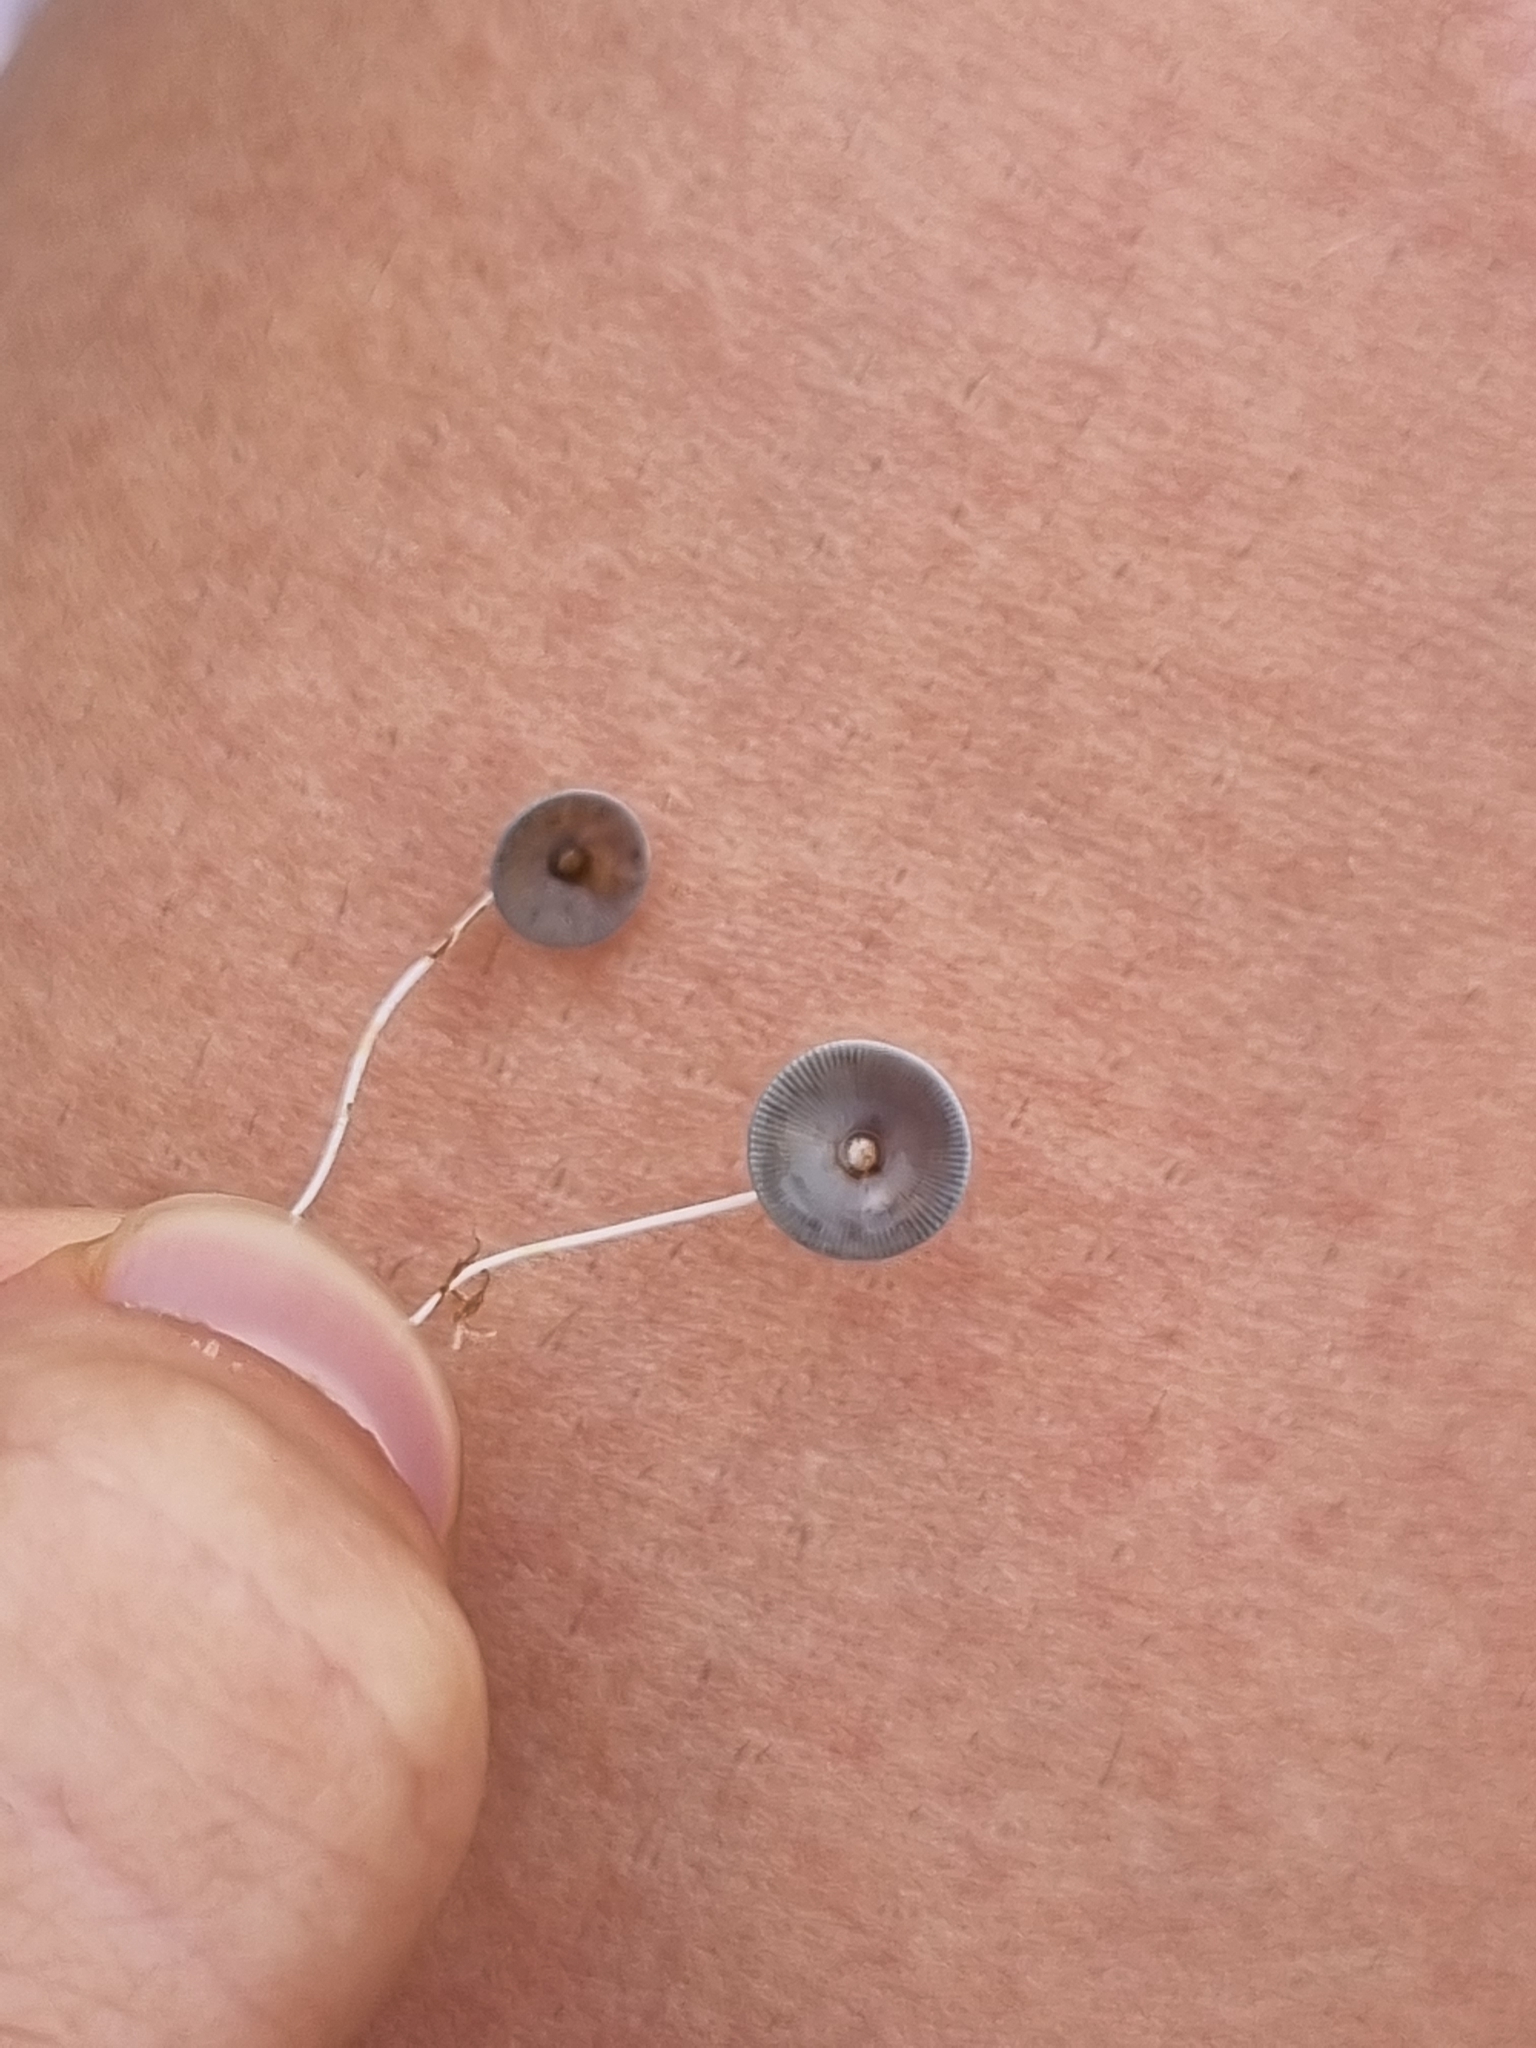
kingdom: Plantae
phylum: Chlorophyta
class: Ulvophyceae
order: Dasycladales
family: Polyphysaceae
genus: Acetabularia
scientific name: Acetabularia acetabulum
